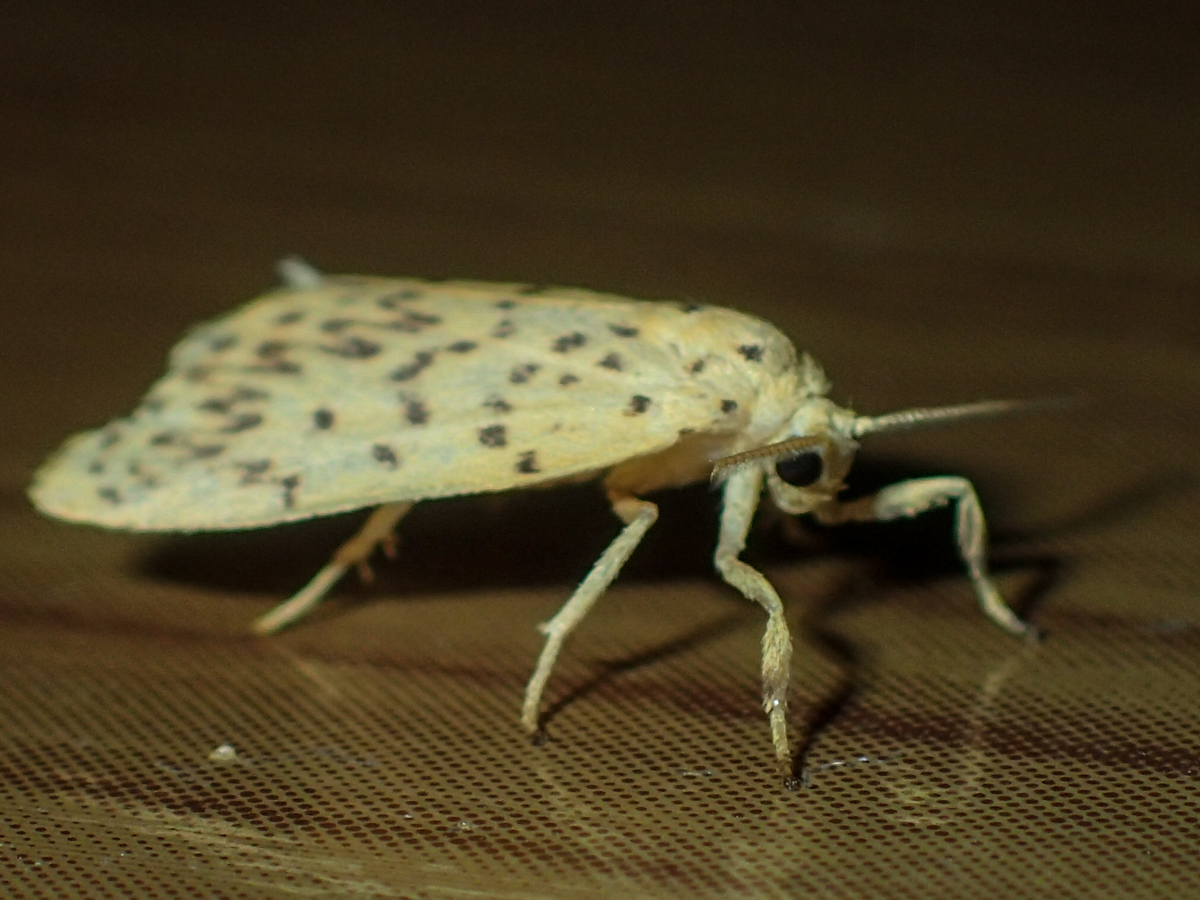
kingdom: Animalia
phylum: Arthropoda
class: Insecta
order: Lepidoptera
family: Erebidae
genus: Miltochrista
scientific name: Miltochrista unguifera
